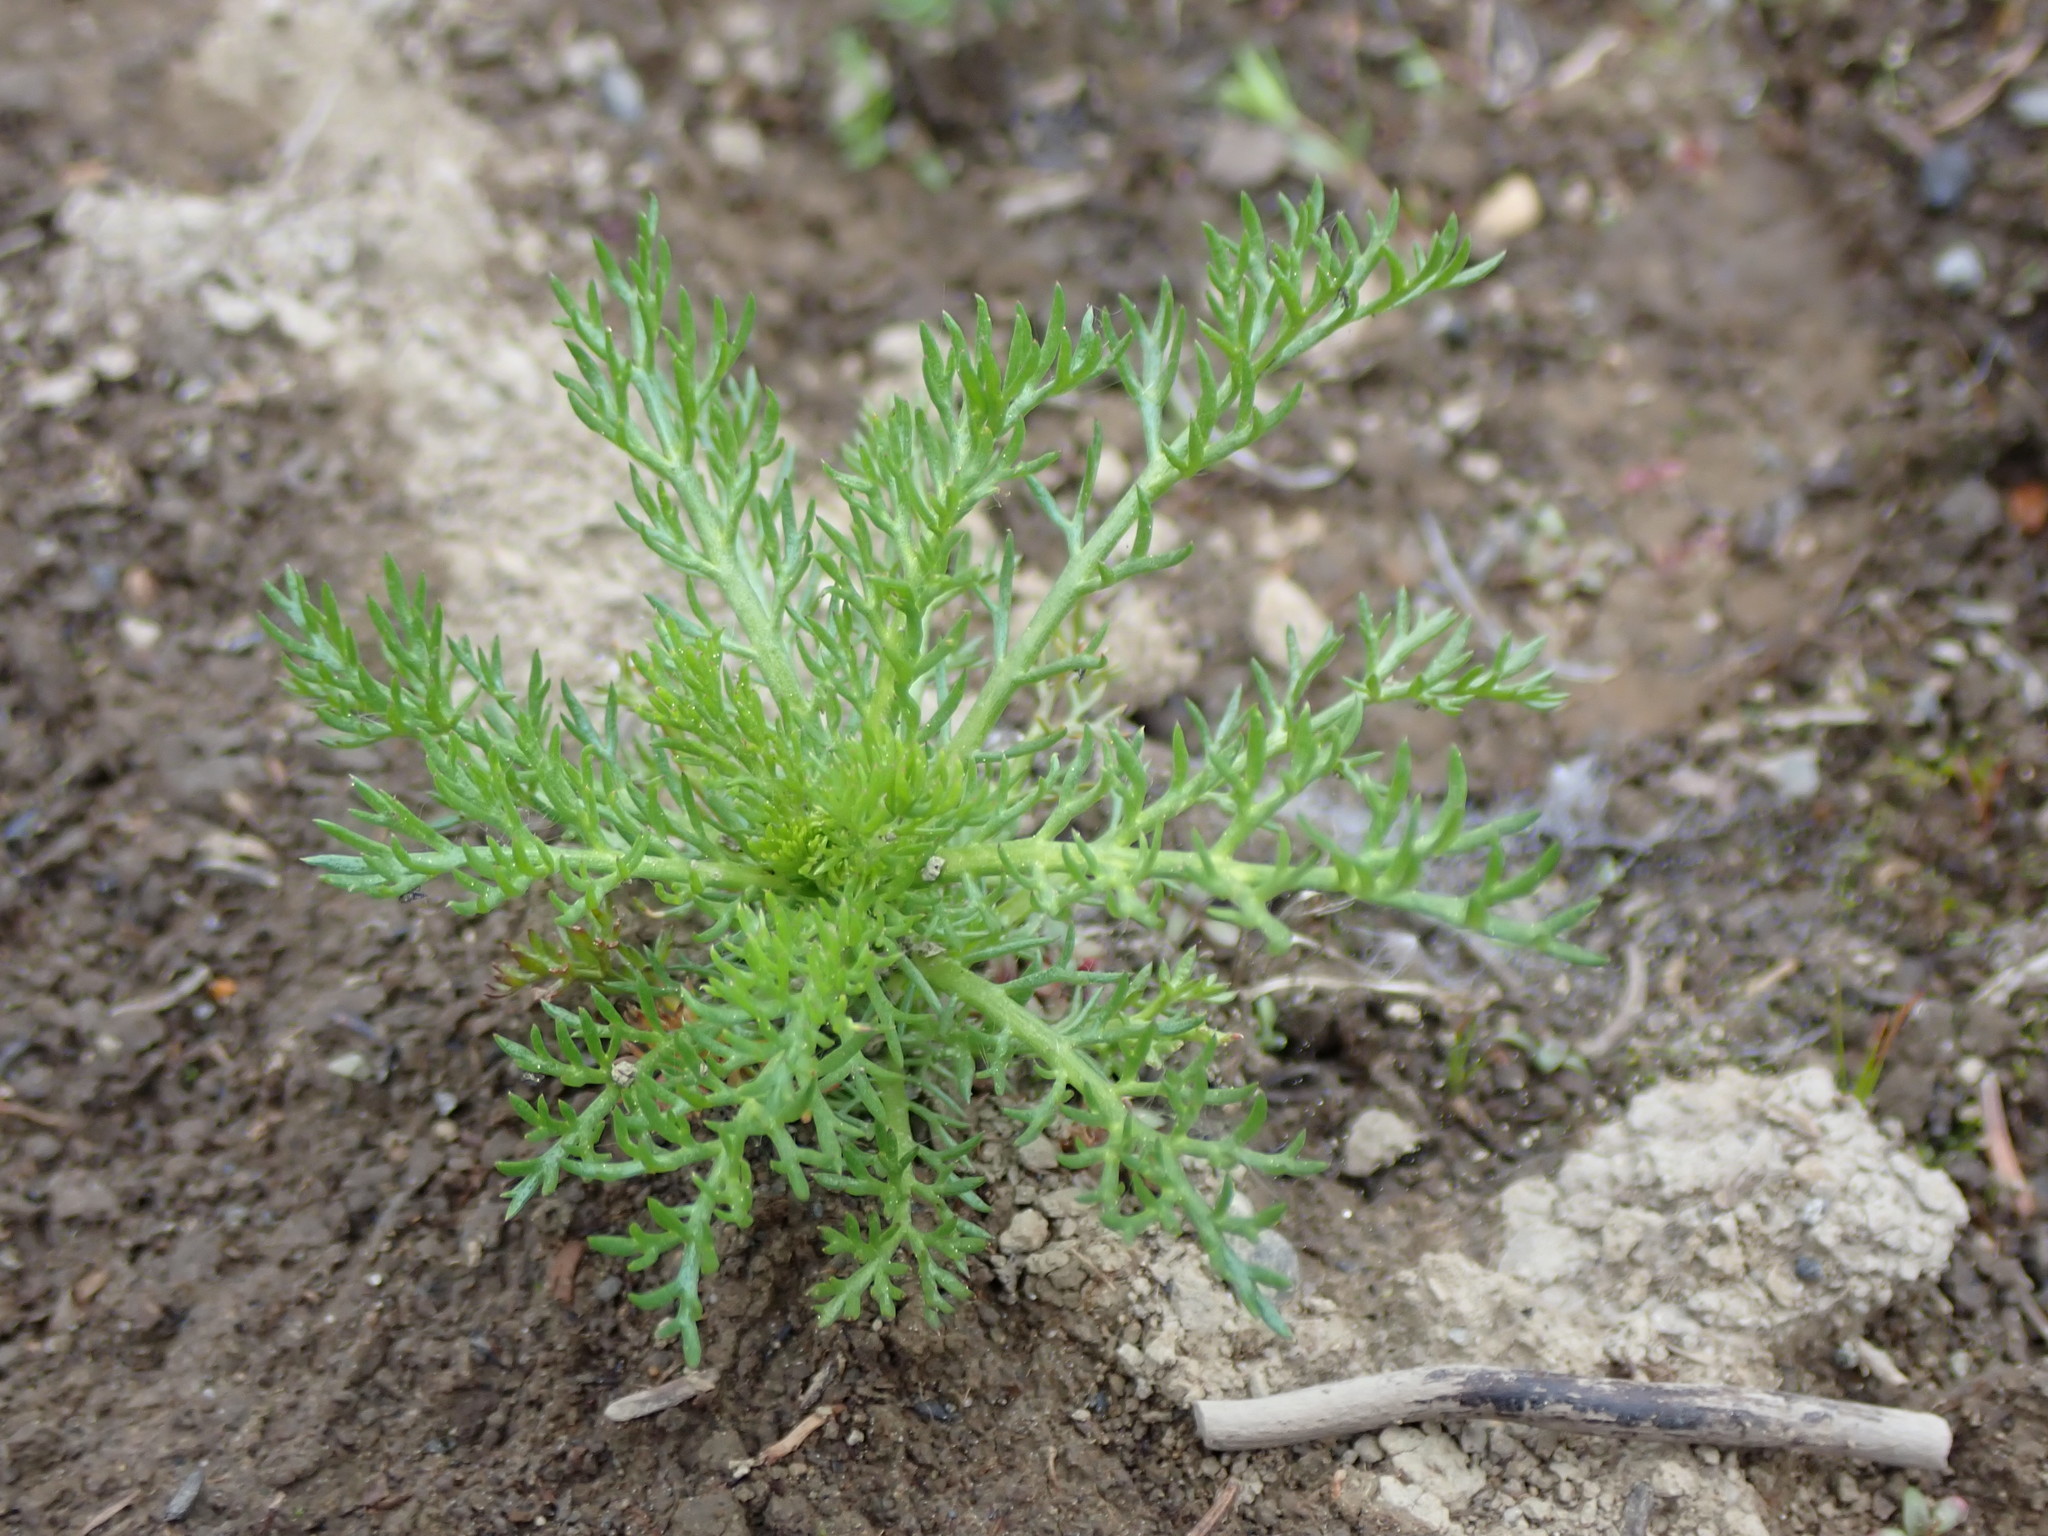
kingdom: Plantae
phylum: Tracheophyta
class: Magnoliopsida
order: Asterales
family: Asteraceae
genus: Matricaria
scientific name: Matricaria discoidea
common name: Disc mayweed
